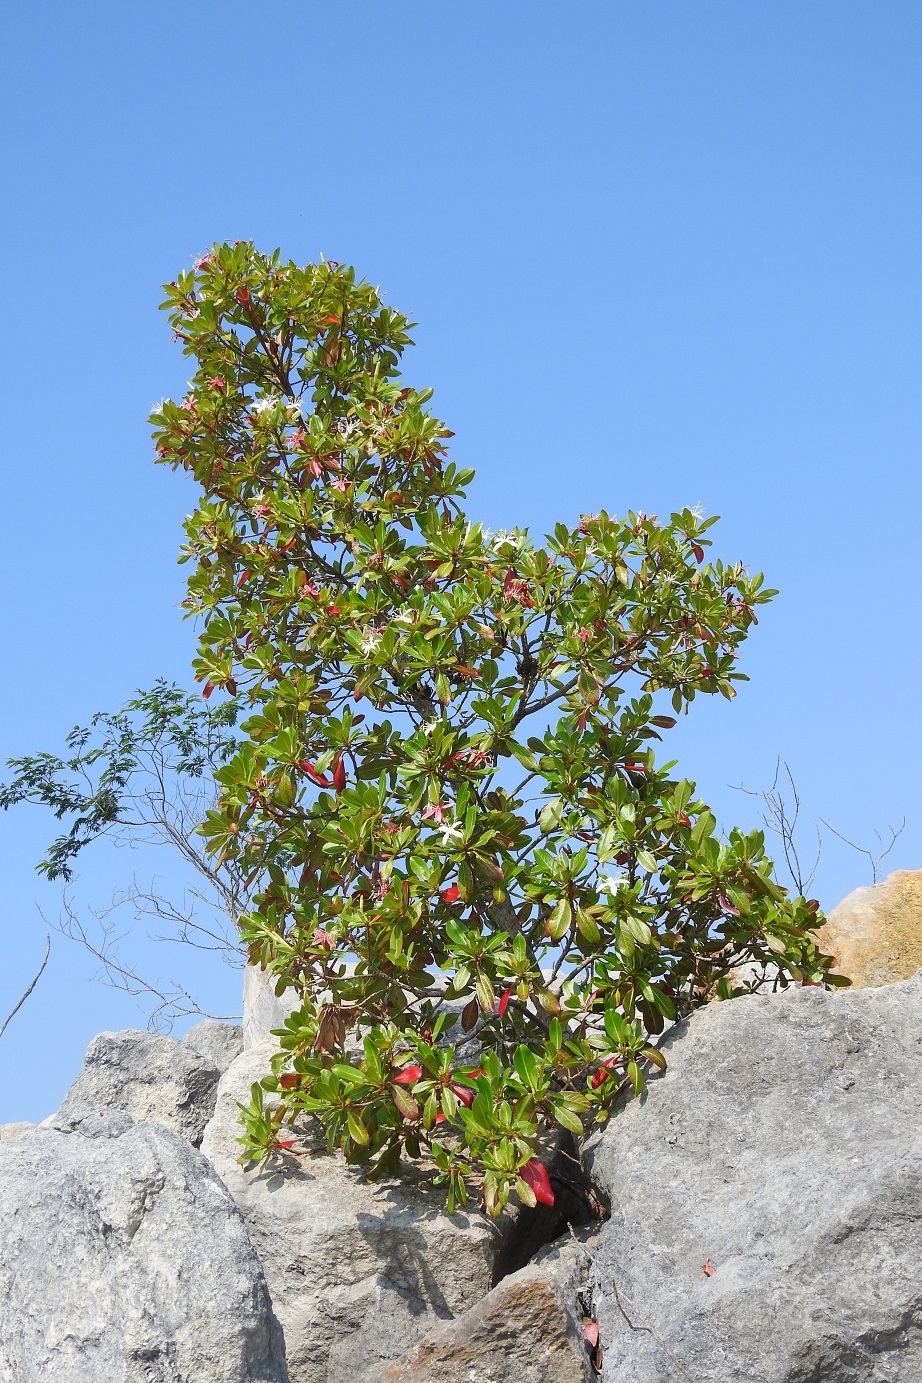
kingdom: Plantae
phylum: Tracheophyta
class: Magnoliopsida
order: Myrtales
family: Onagraceae
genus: Hauya
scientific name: Hauya elegans
